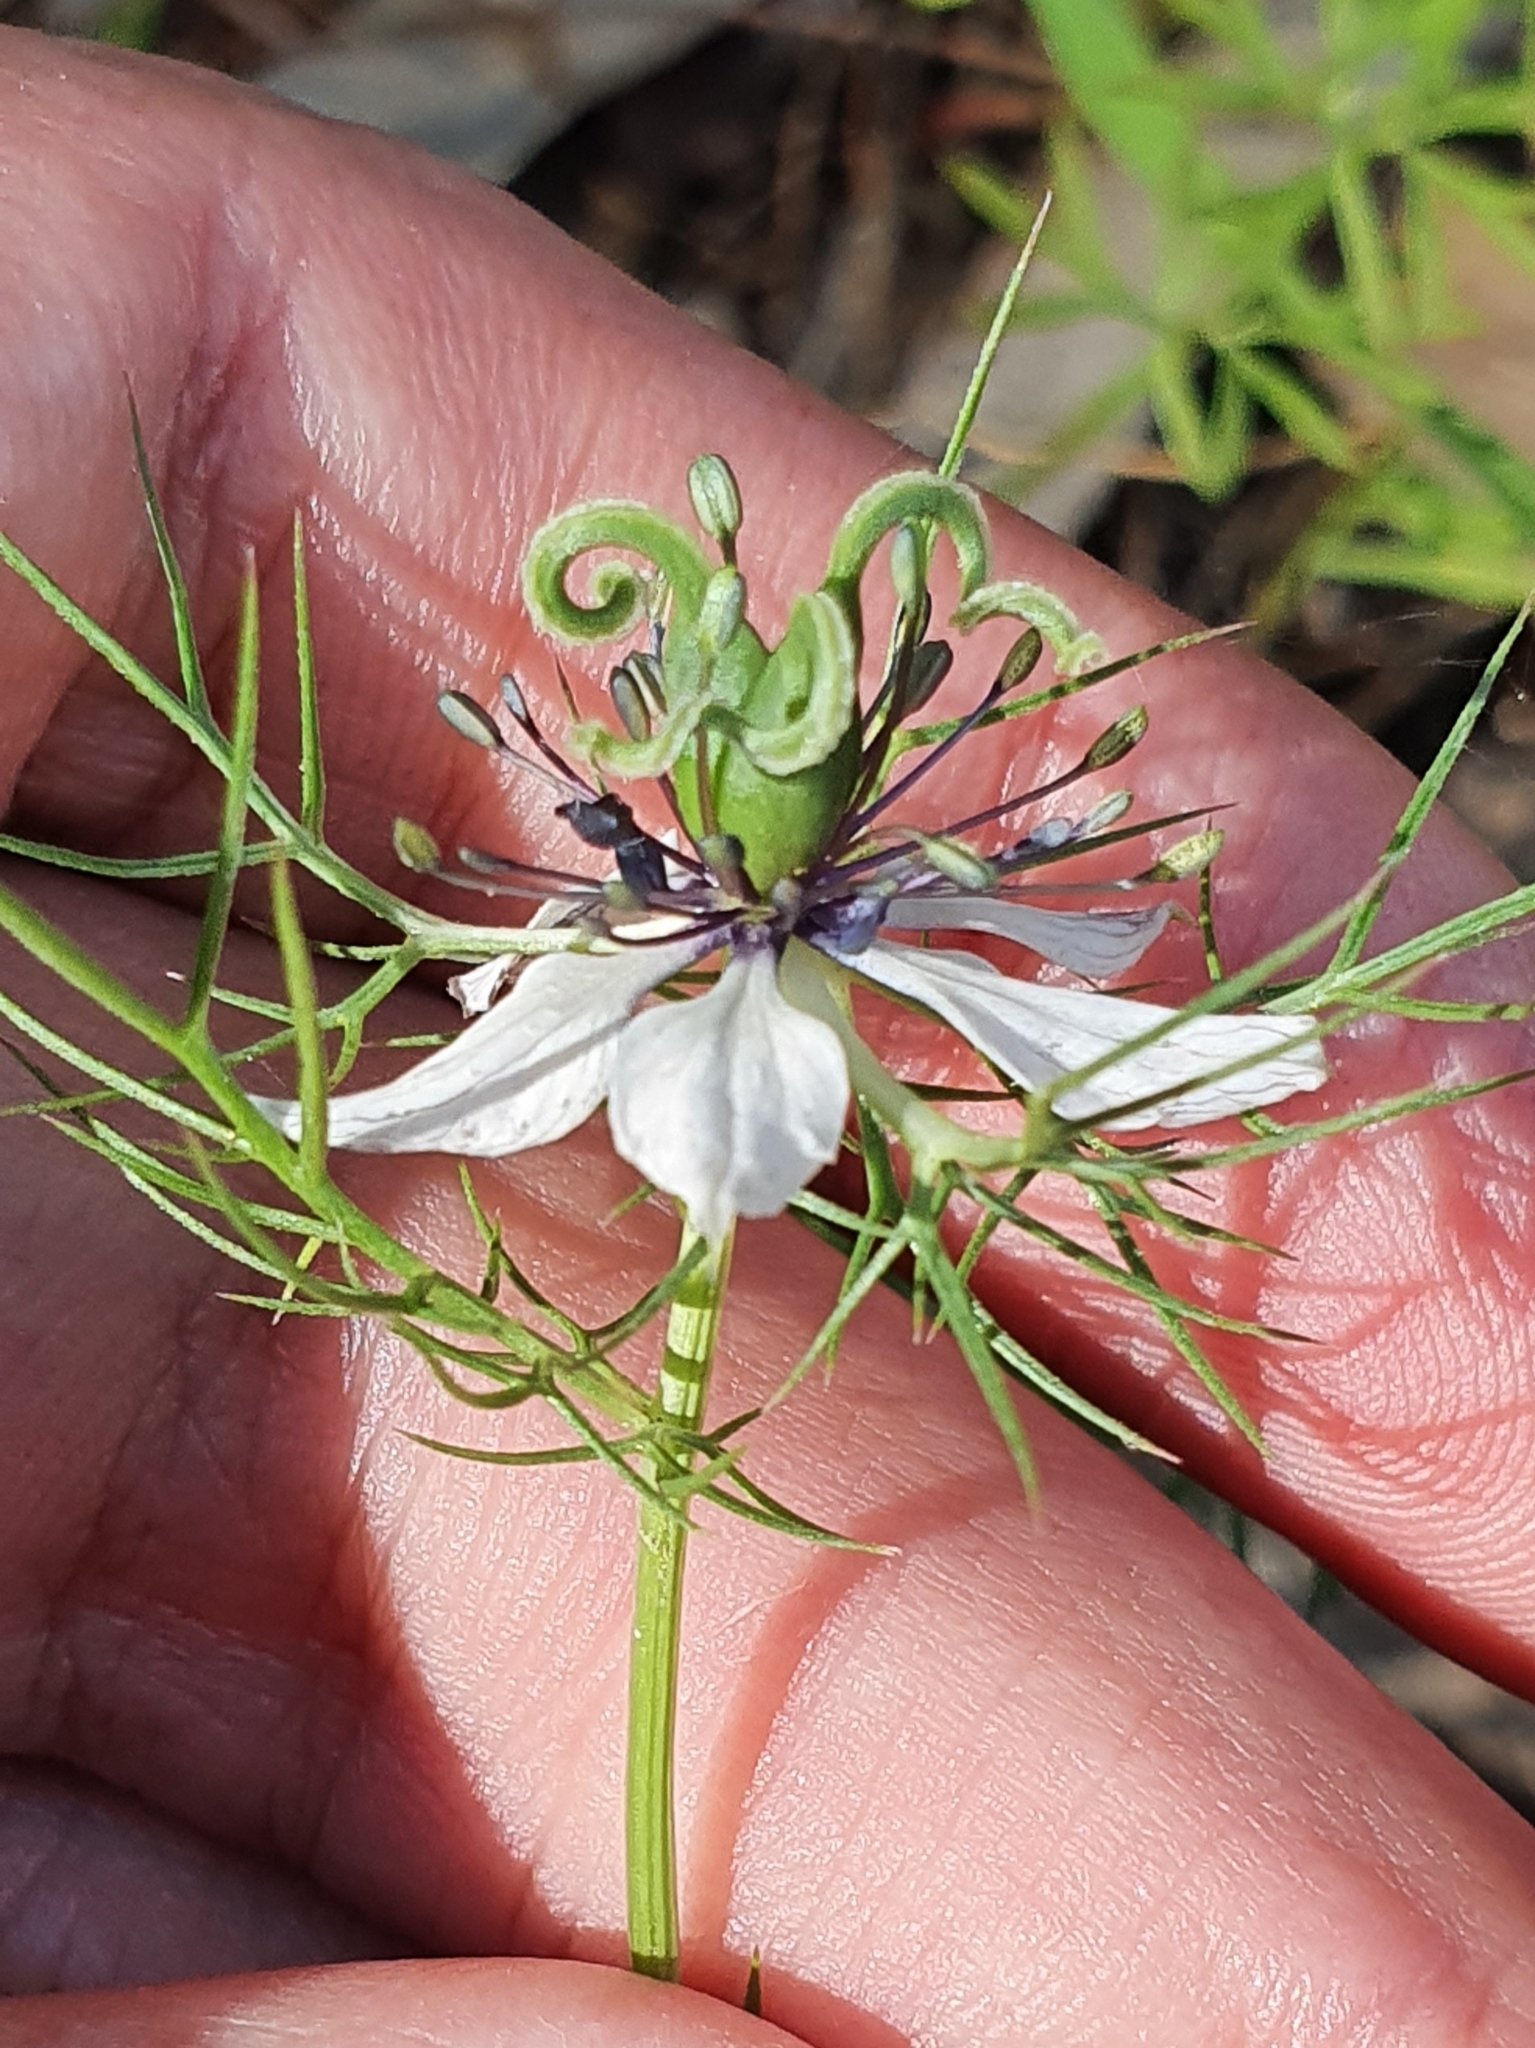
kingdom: Plantae
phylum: Tracheophyta
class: Magnoliopsida
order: Ranunculales
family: Ranunculaceae
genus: Nigella
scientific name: Nigella damascena
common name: Love-in-a-mist
